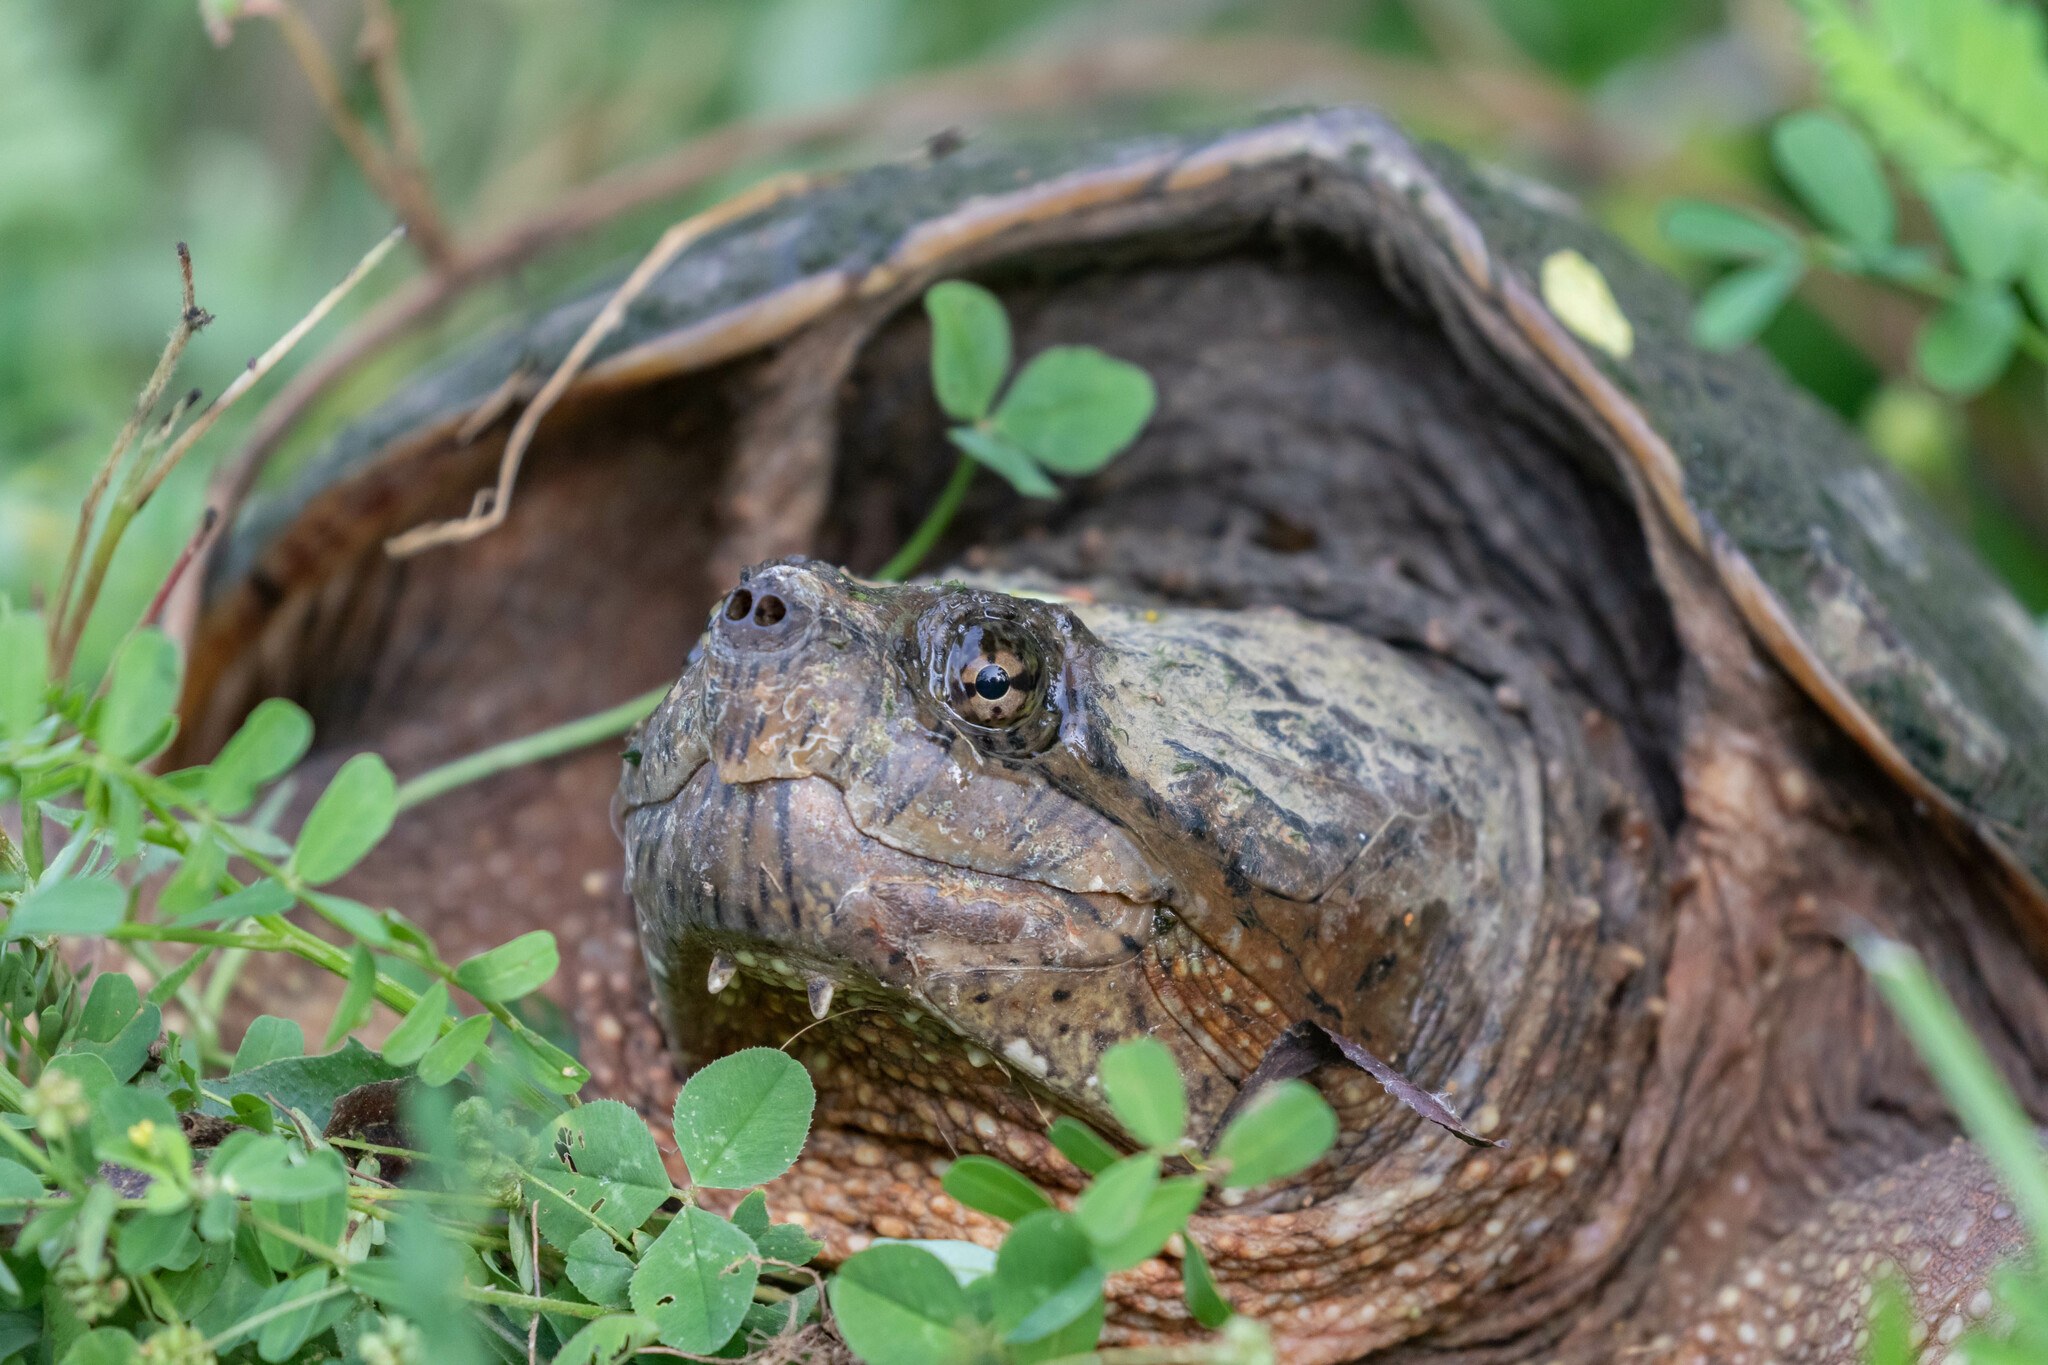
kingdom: Animalia
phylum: Chordata
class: Testudines
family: Chelydridae
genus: Chelydra
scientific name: Chelydra serpentina
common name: Common snapping turtle
